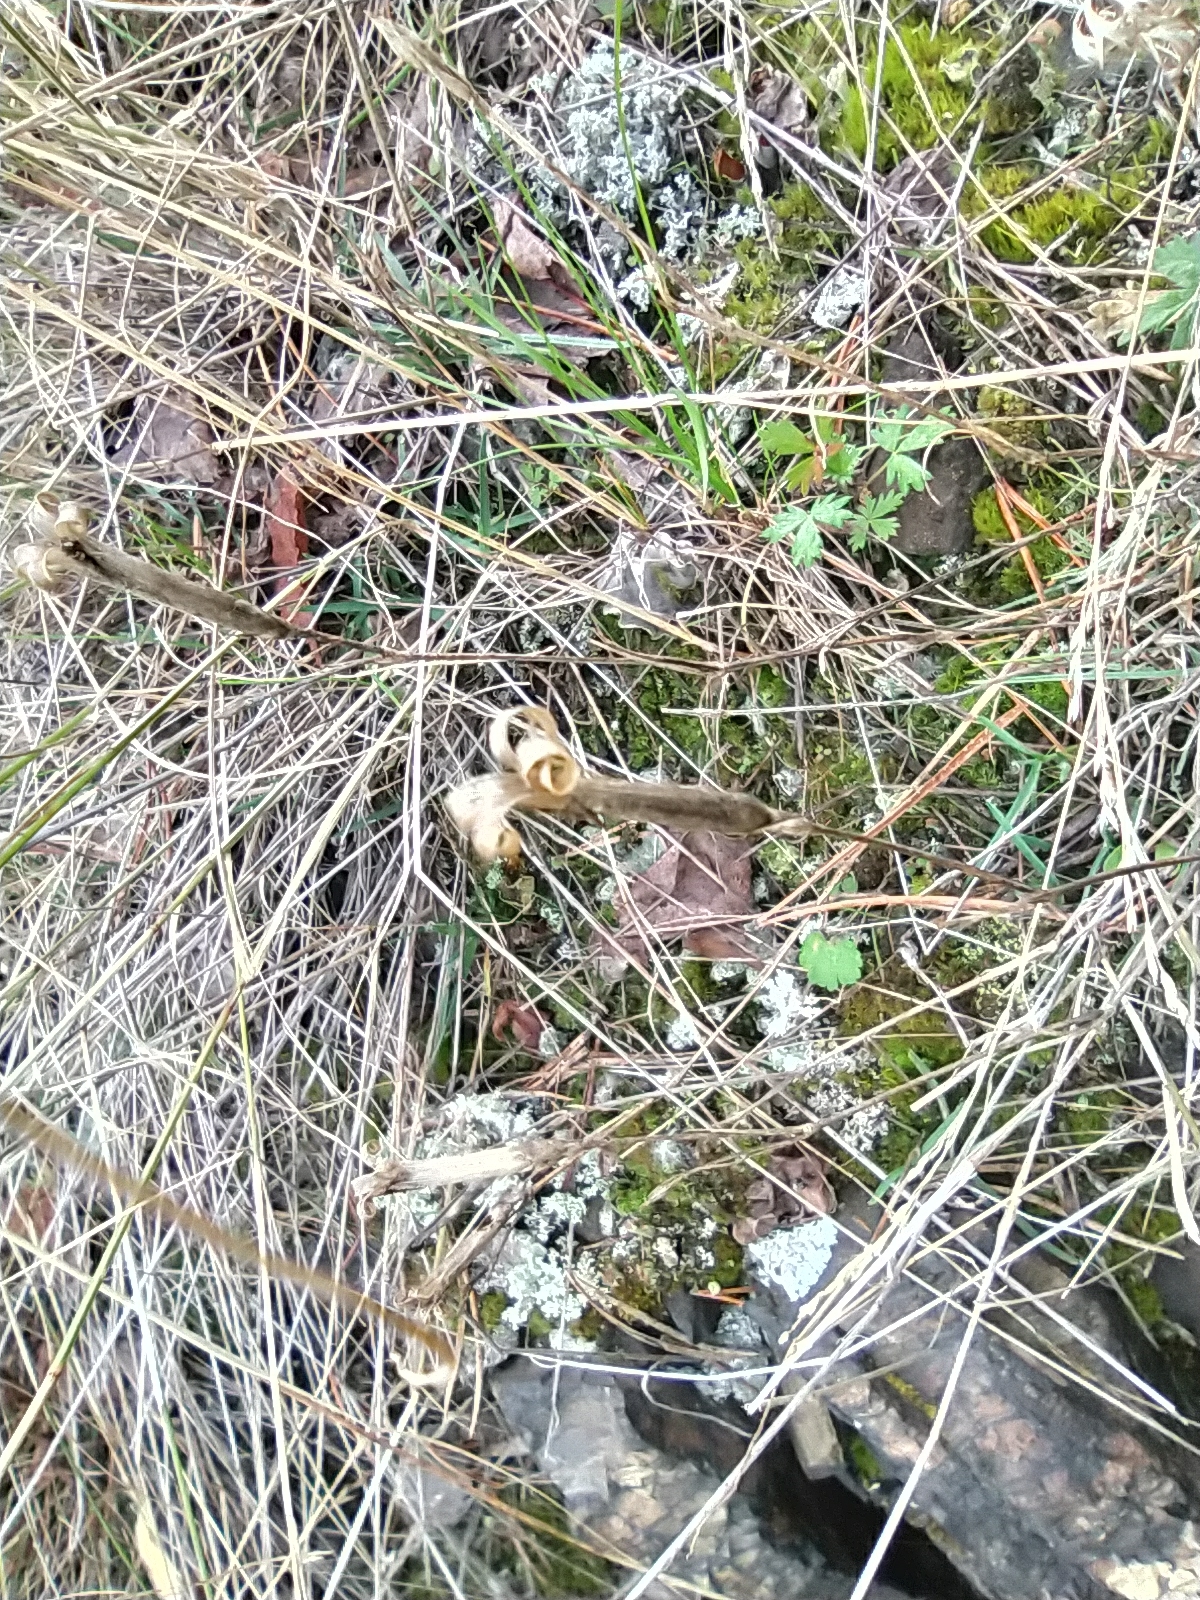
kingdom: Plantae
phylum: Tracheophyta
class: Magnoliopsida
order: Caryophyllales
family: Caryophyllaceae
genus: Dianthus
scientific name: Dianthus acicularis
